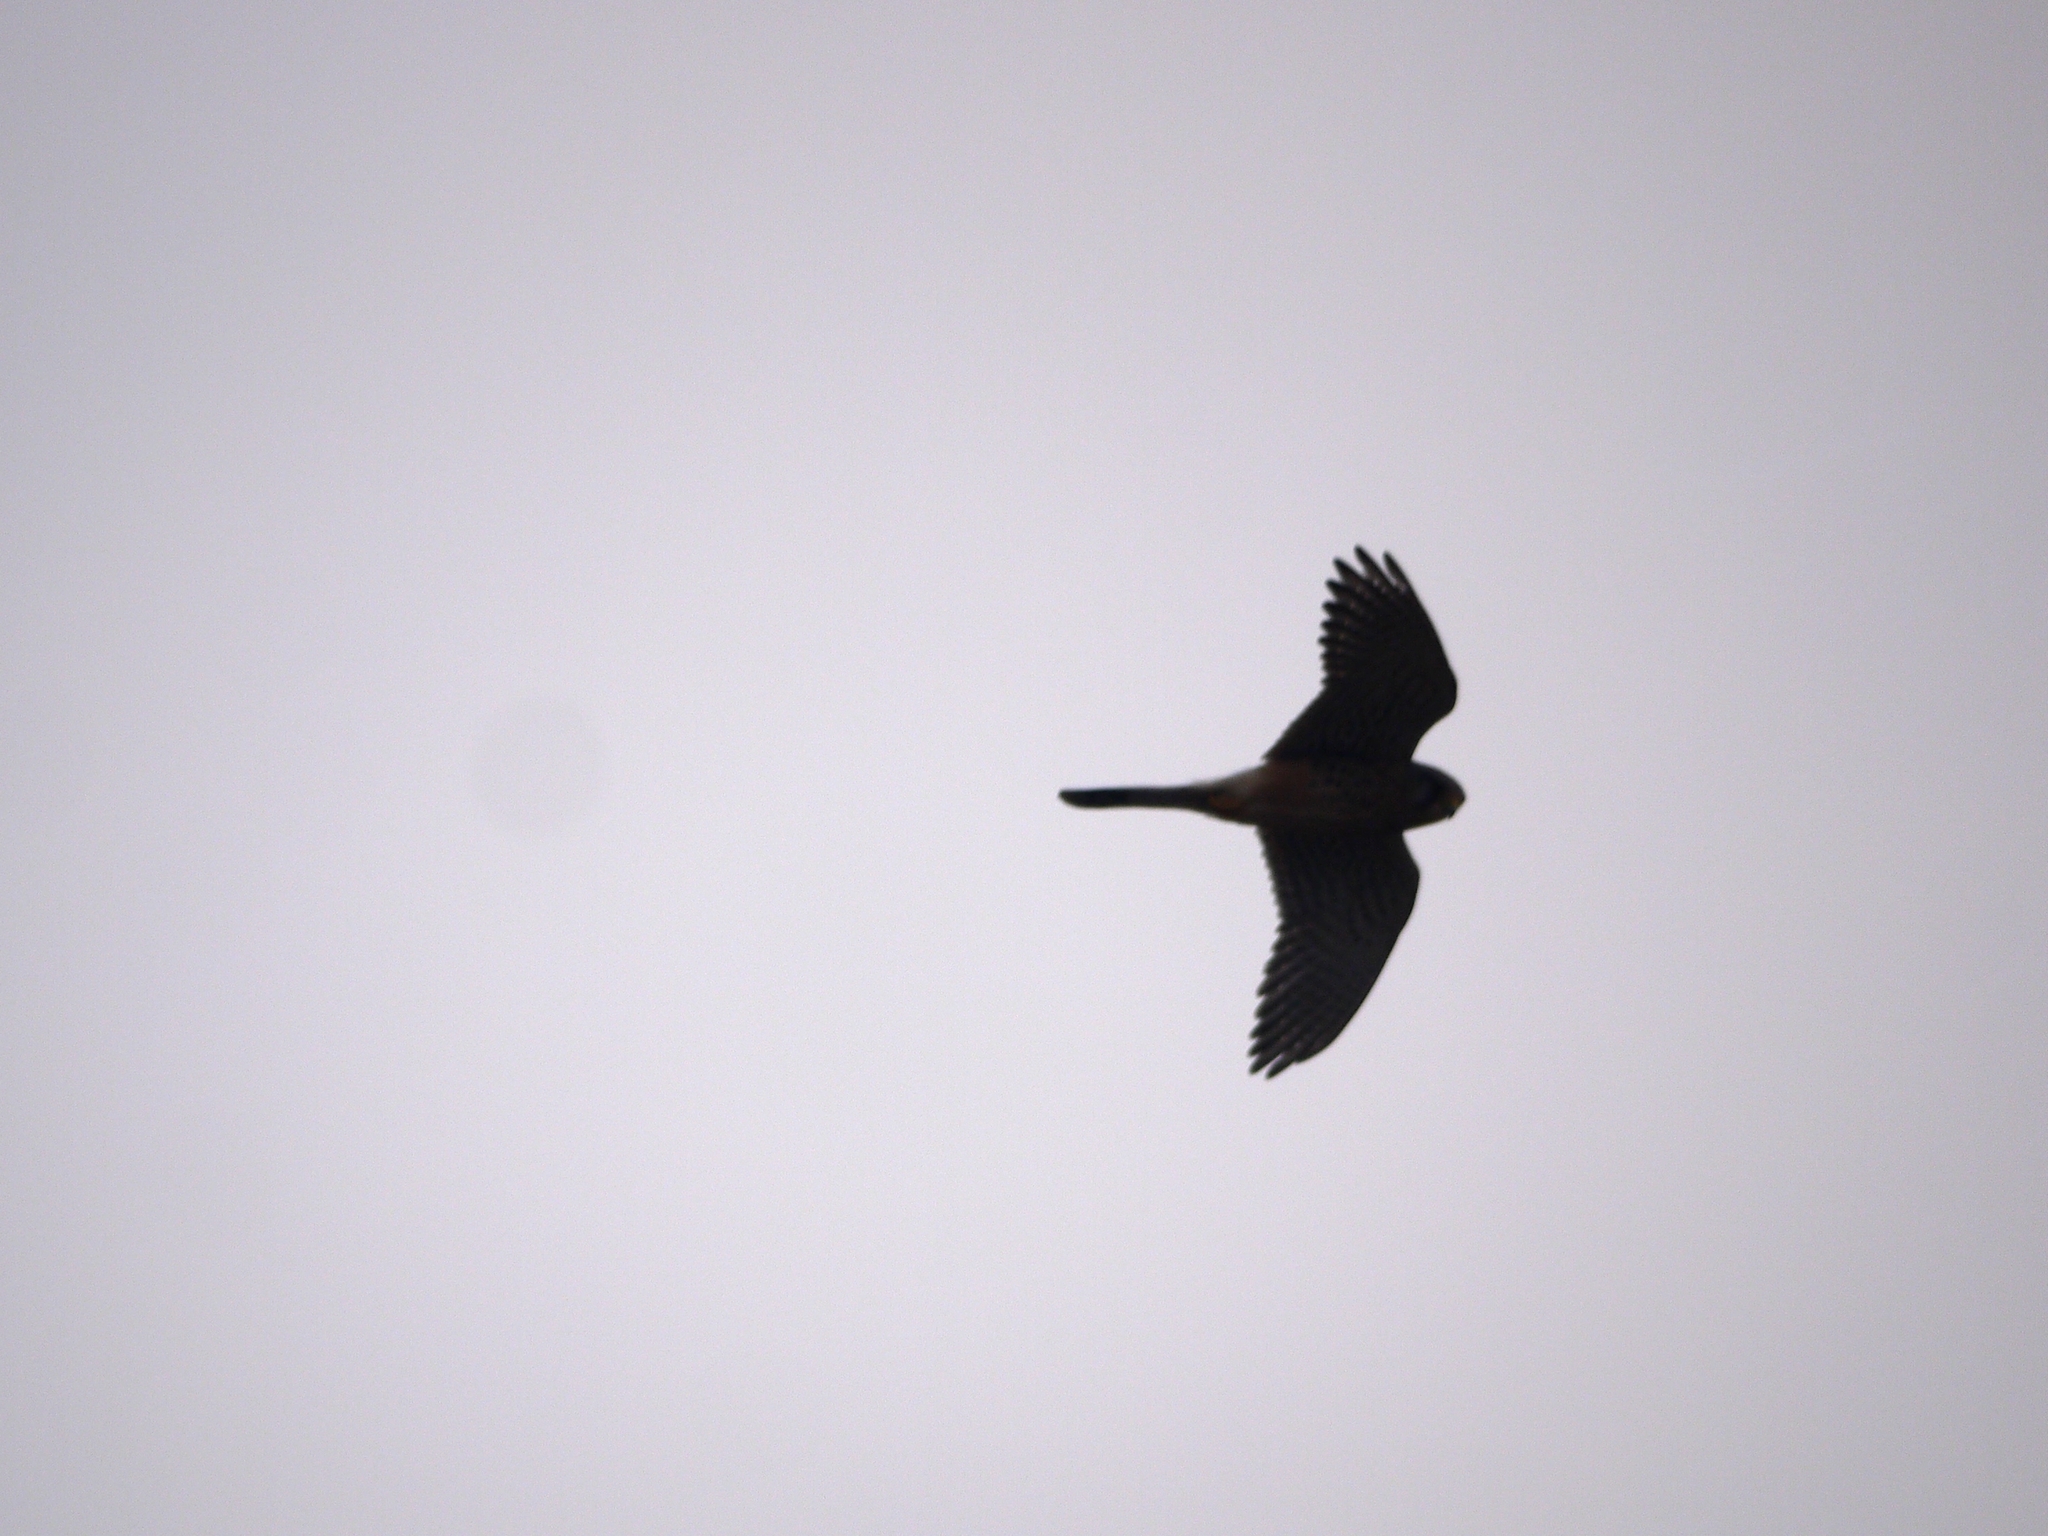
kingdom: Animalia
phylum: Chordata
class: Aves
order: Falconiformes
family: Falconidae
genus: Falco
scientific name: Falco tinnunculus
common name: Common kestrel
